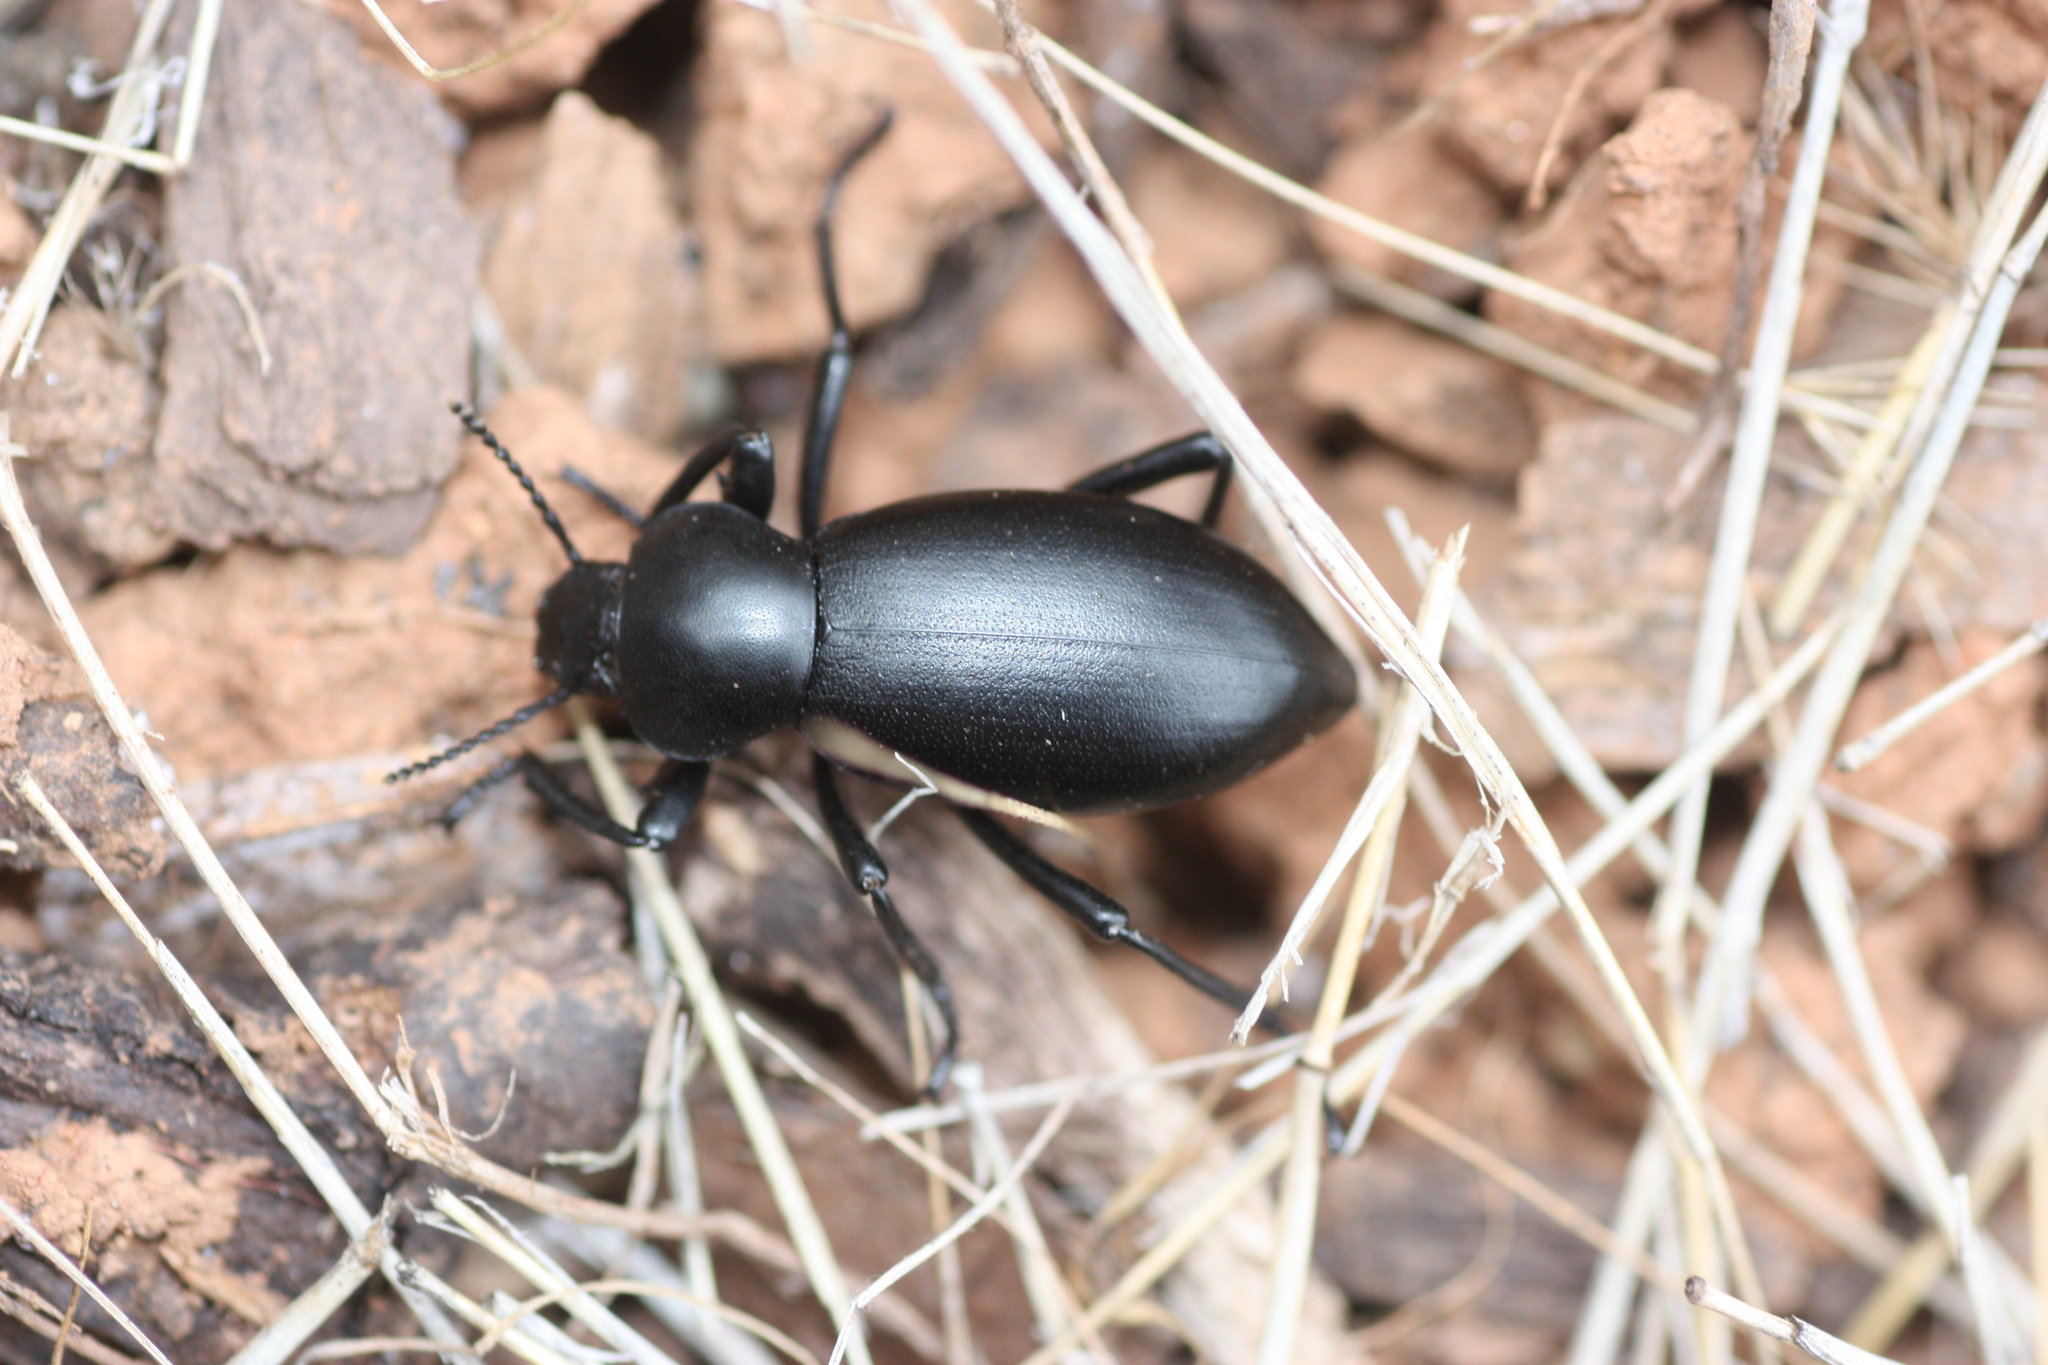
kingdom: Animalia
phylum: Arthropoda
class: Insecta
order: Coleoptera
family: Tenebrionidae
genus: Eleodes
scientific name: Eleodes dentipes
